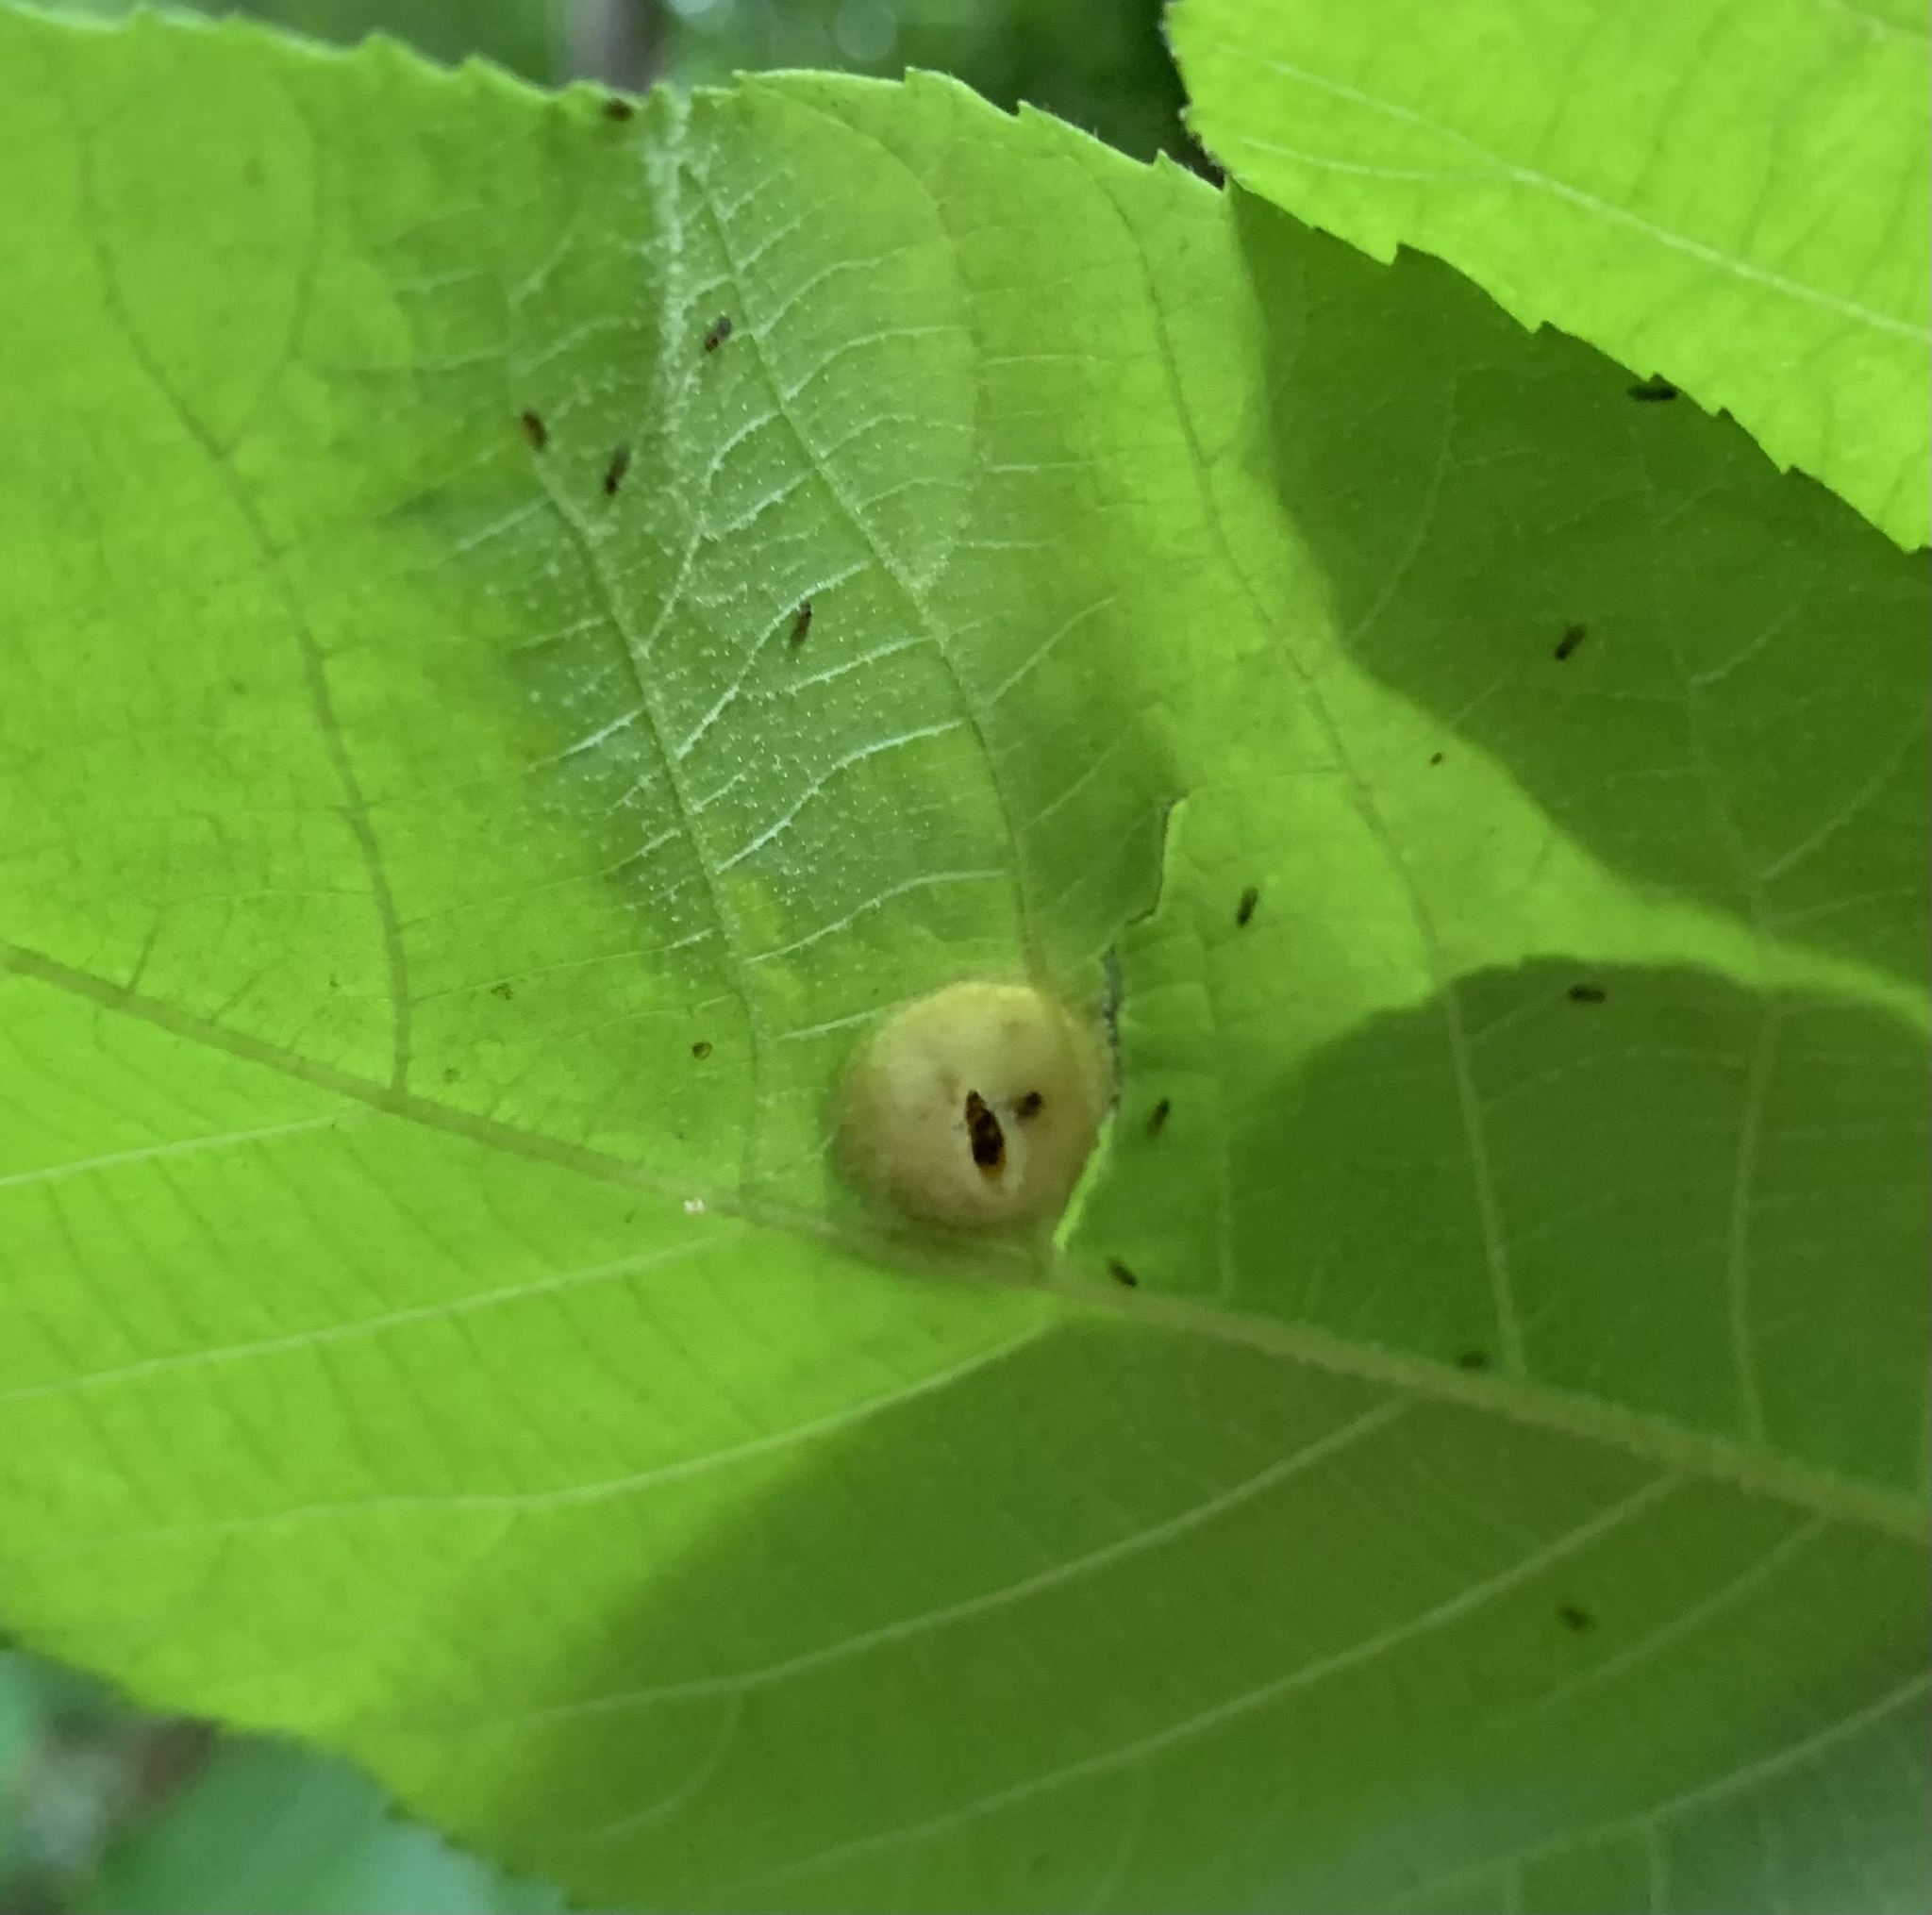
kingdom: Animalia
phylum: Arthropoda
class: Insecta
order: Hemiptera
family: Phylloxeridae
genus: Phylloxera
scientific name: Phylloxera caryae-scissa
